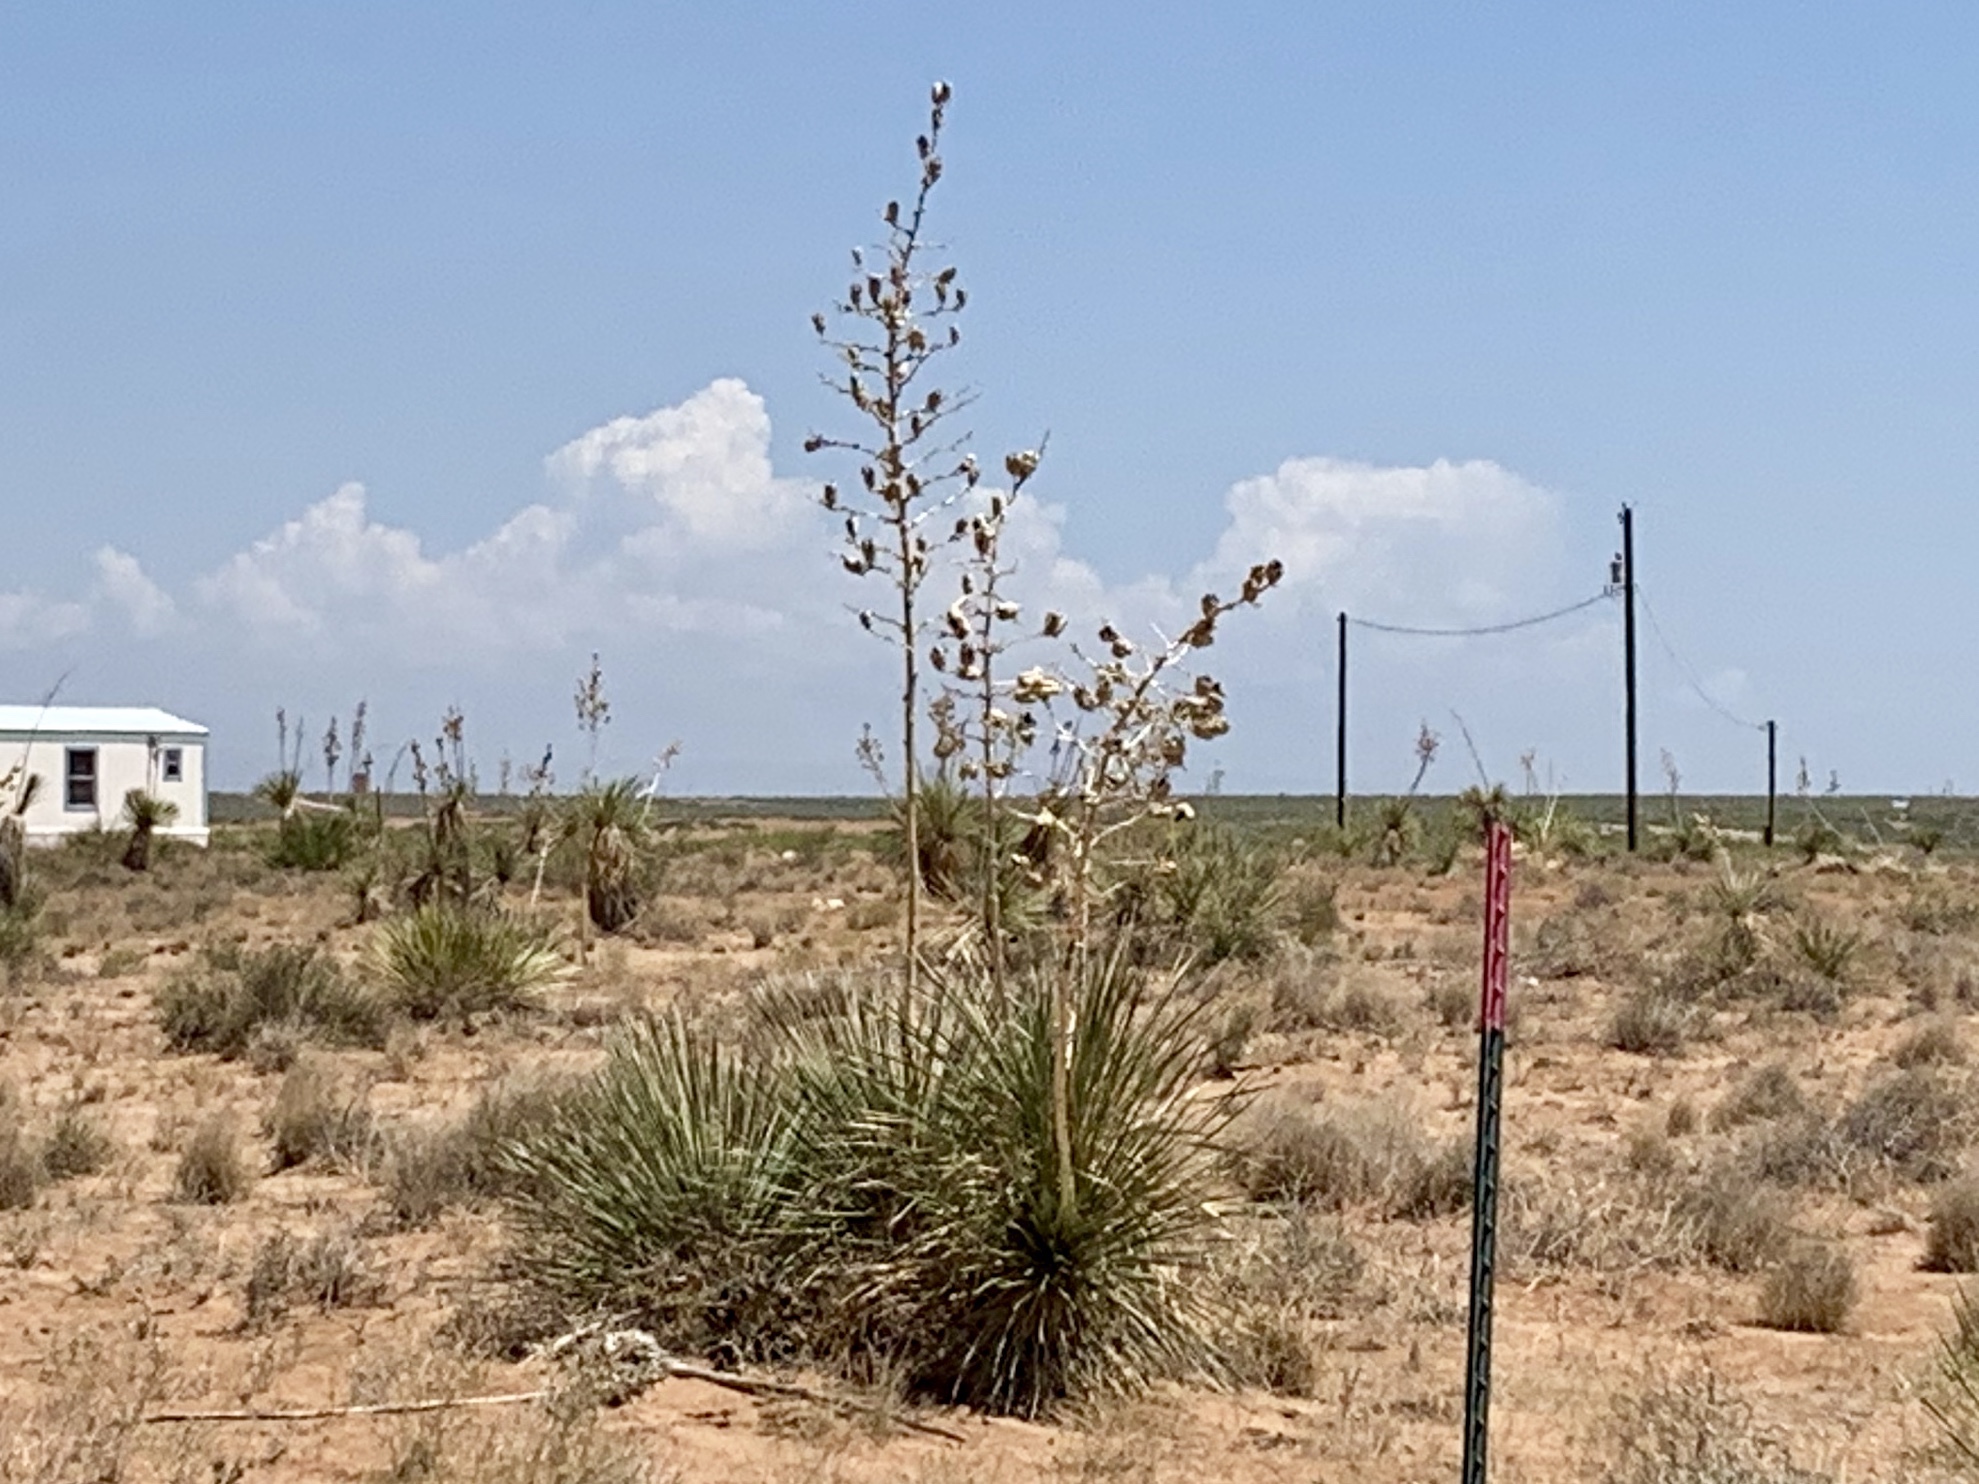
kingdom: Plantae
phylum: Tracheophyta
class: Liliopsida
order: Asparagales
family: Asparagaceae
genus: Yucca
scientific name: Yucca elata
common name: Palmella
